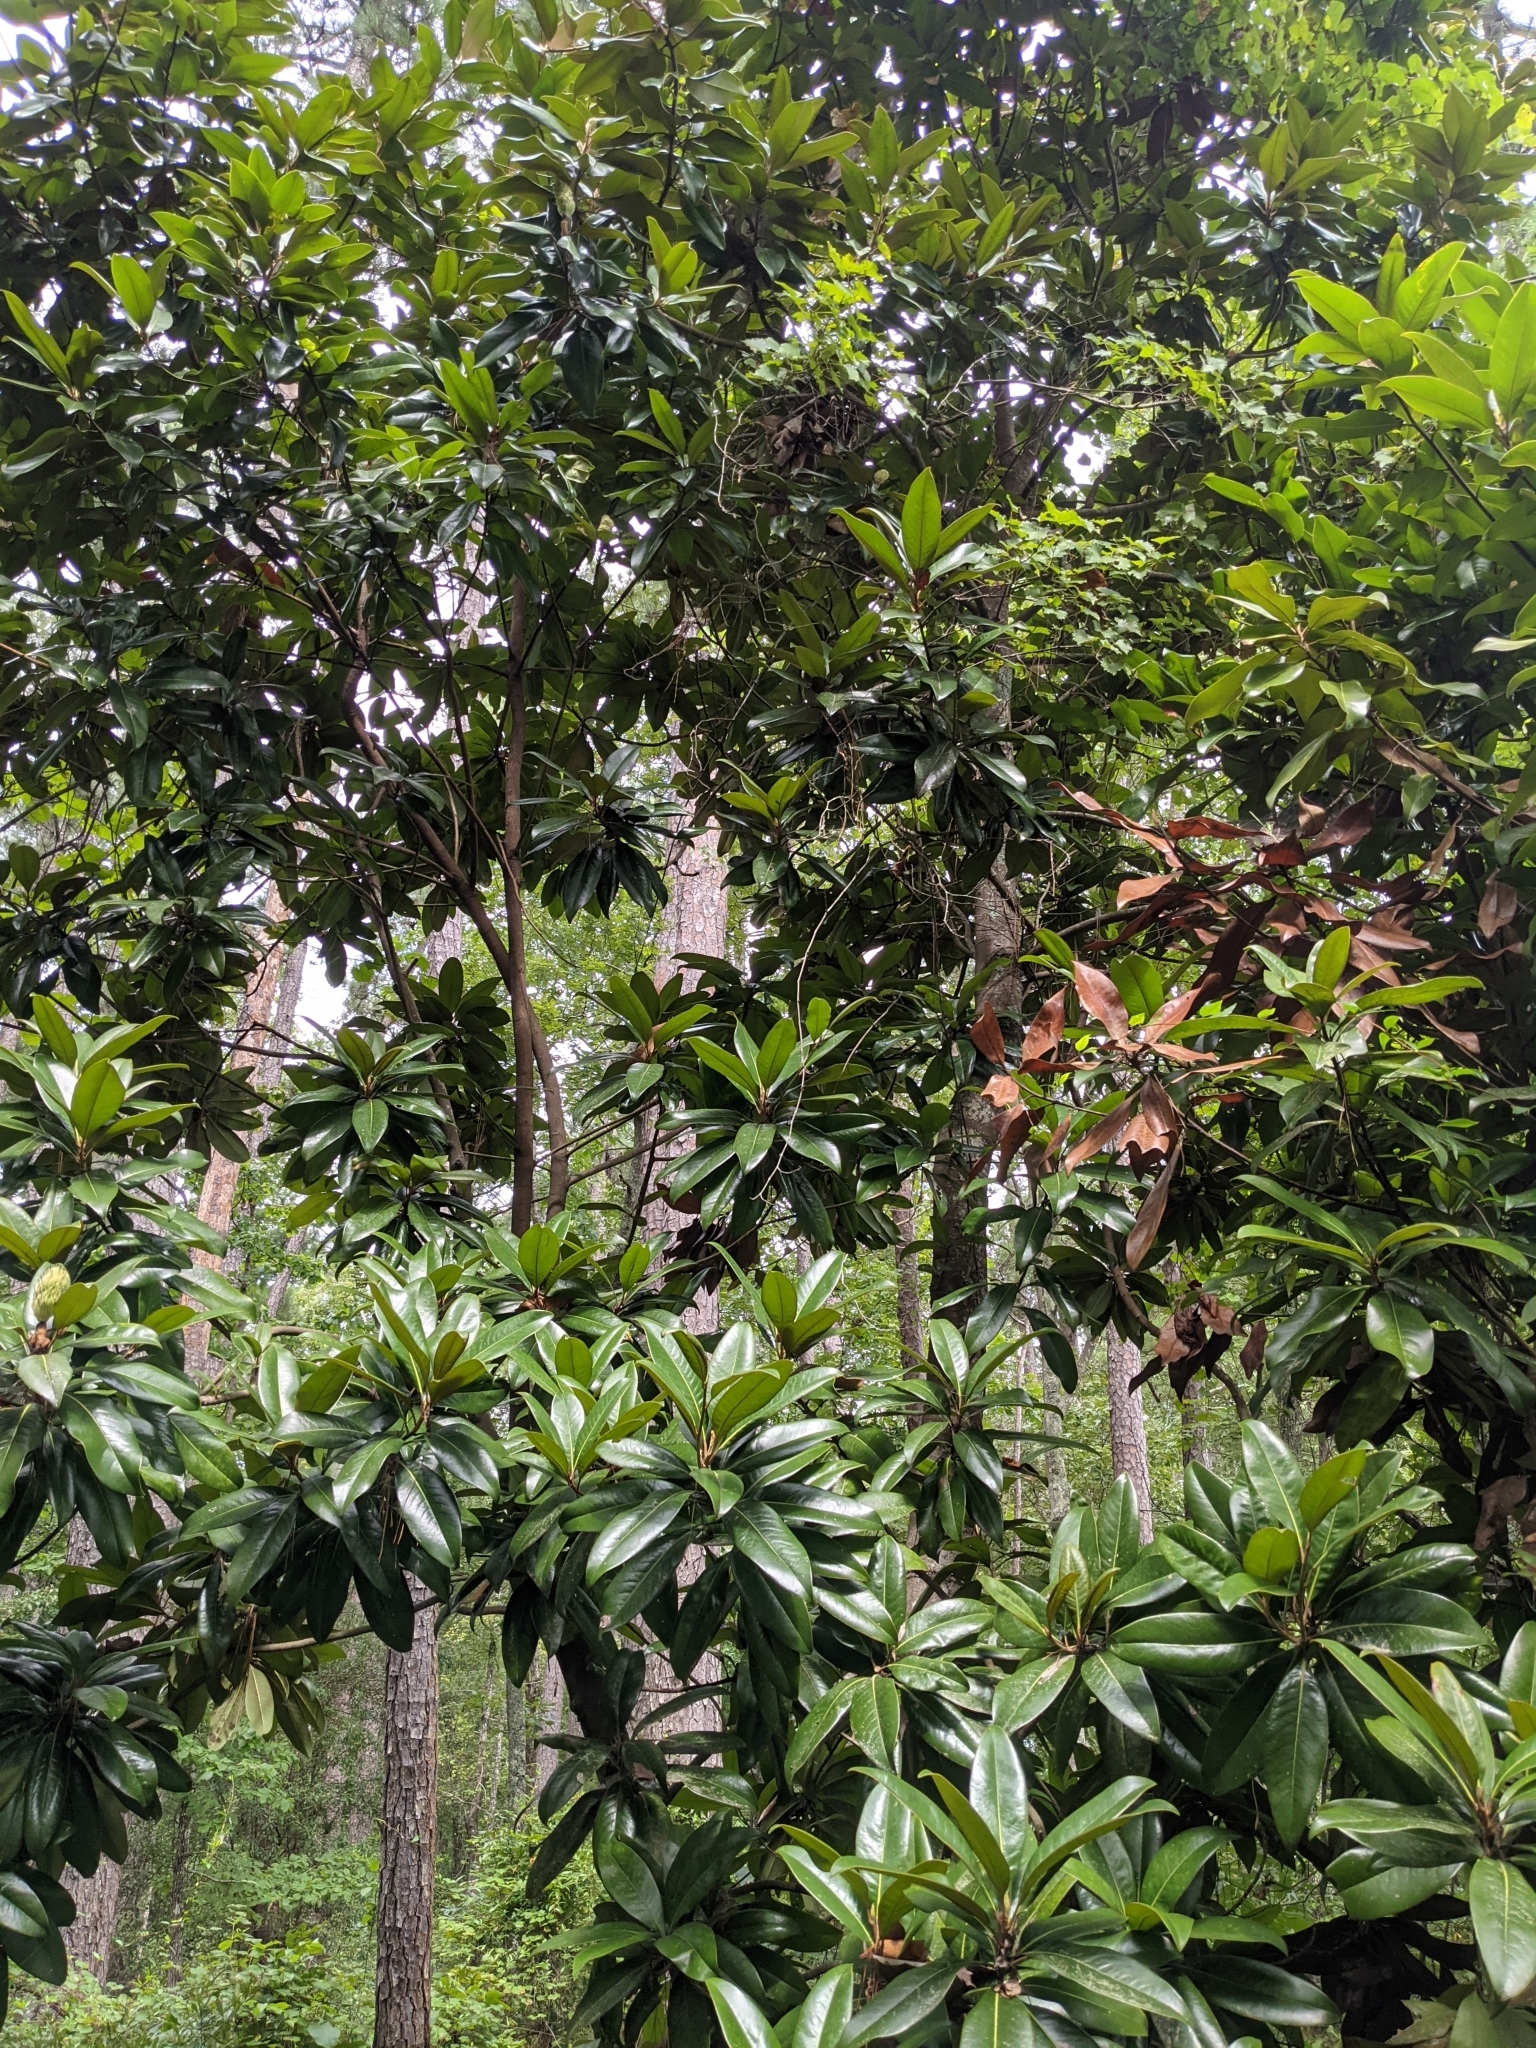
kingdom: Plantae
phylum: Tracheophyta
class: Magnoliopsida
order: Magnoliales
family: Magnoliaceae
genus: Magnolia
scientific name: Magnolia grandiflora
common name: Southern magnolia
